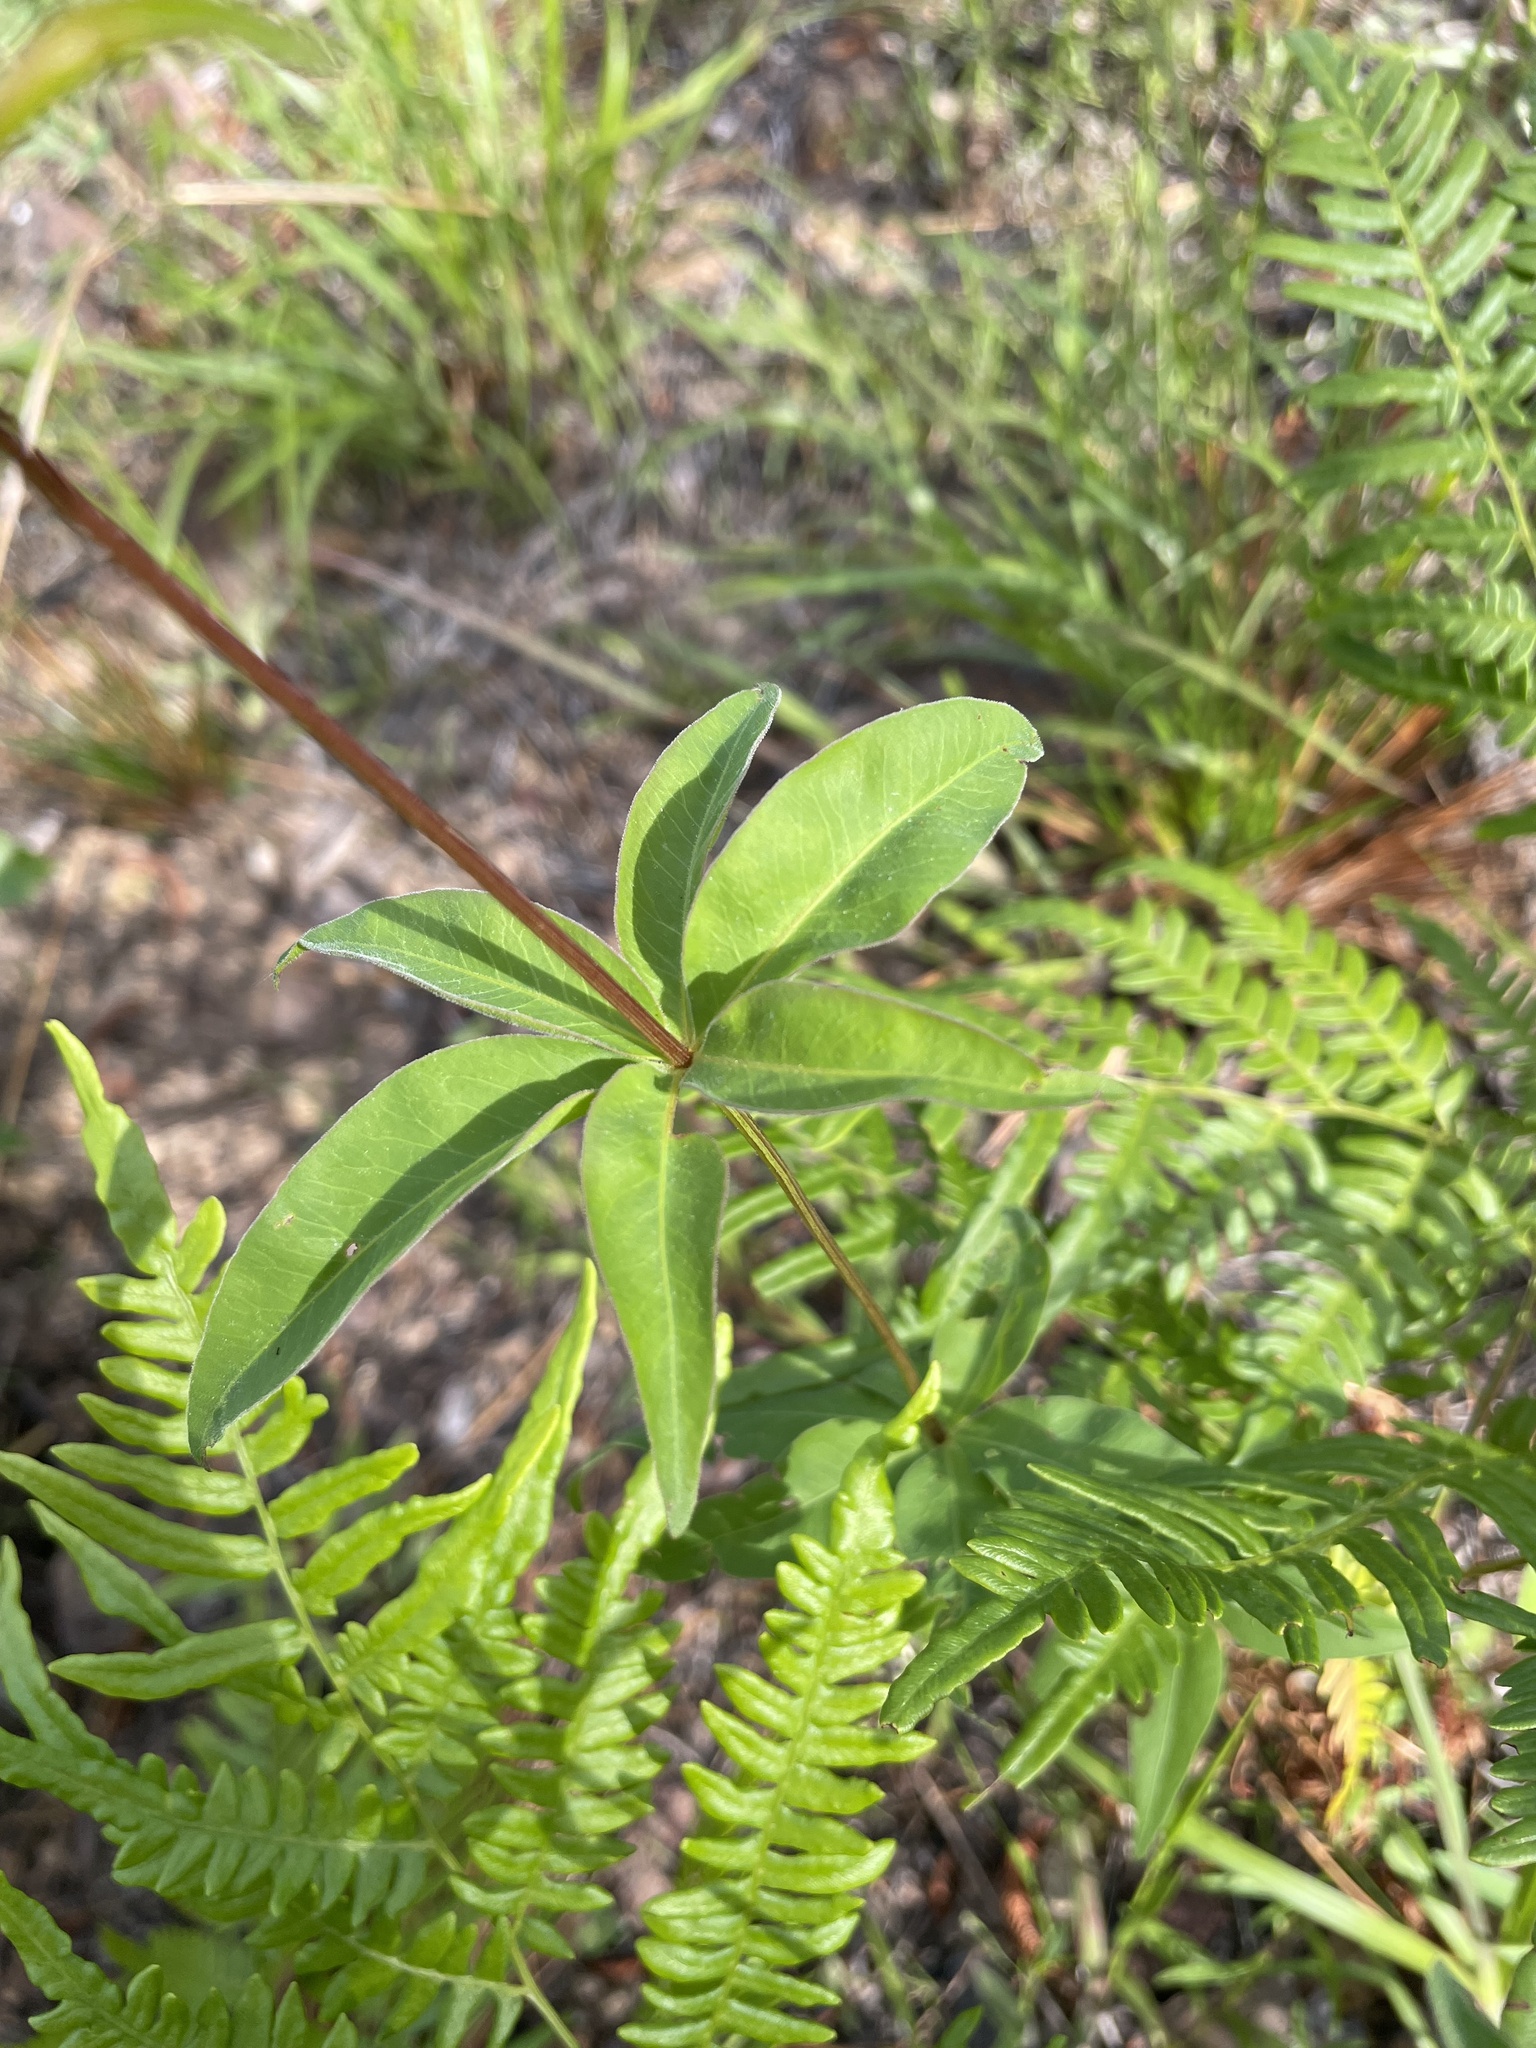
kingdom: Plantae
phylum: Tracheophyta
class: Magnoliopsida
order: Asterales
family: Asteraceae
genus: Coreopsis
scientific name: Coreopsis major
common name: Forest tickseed
